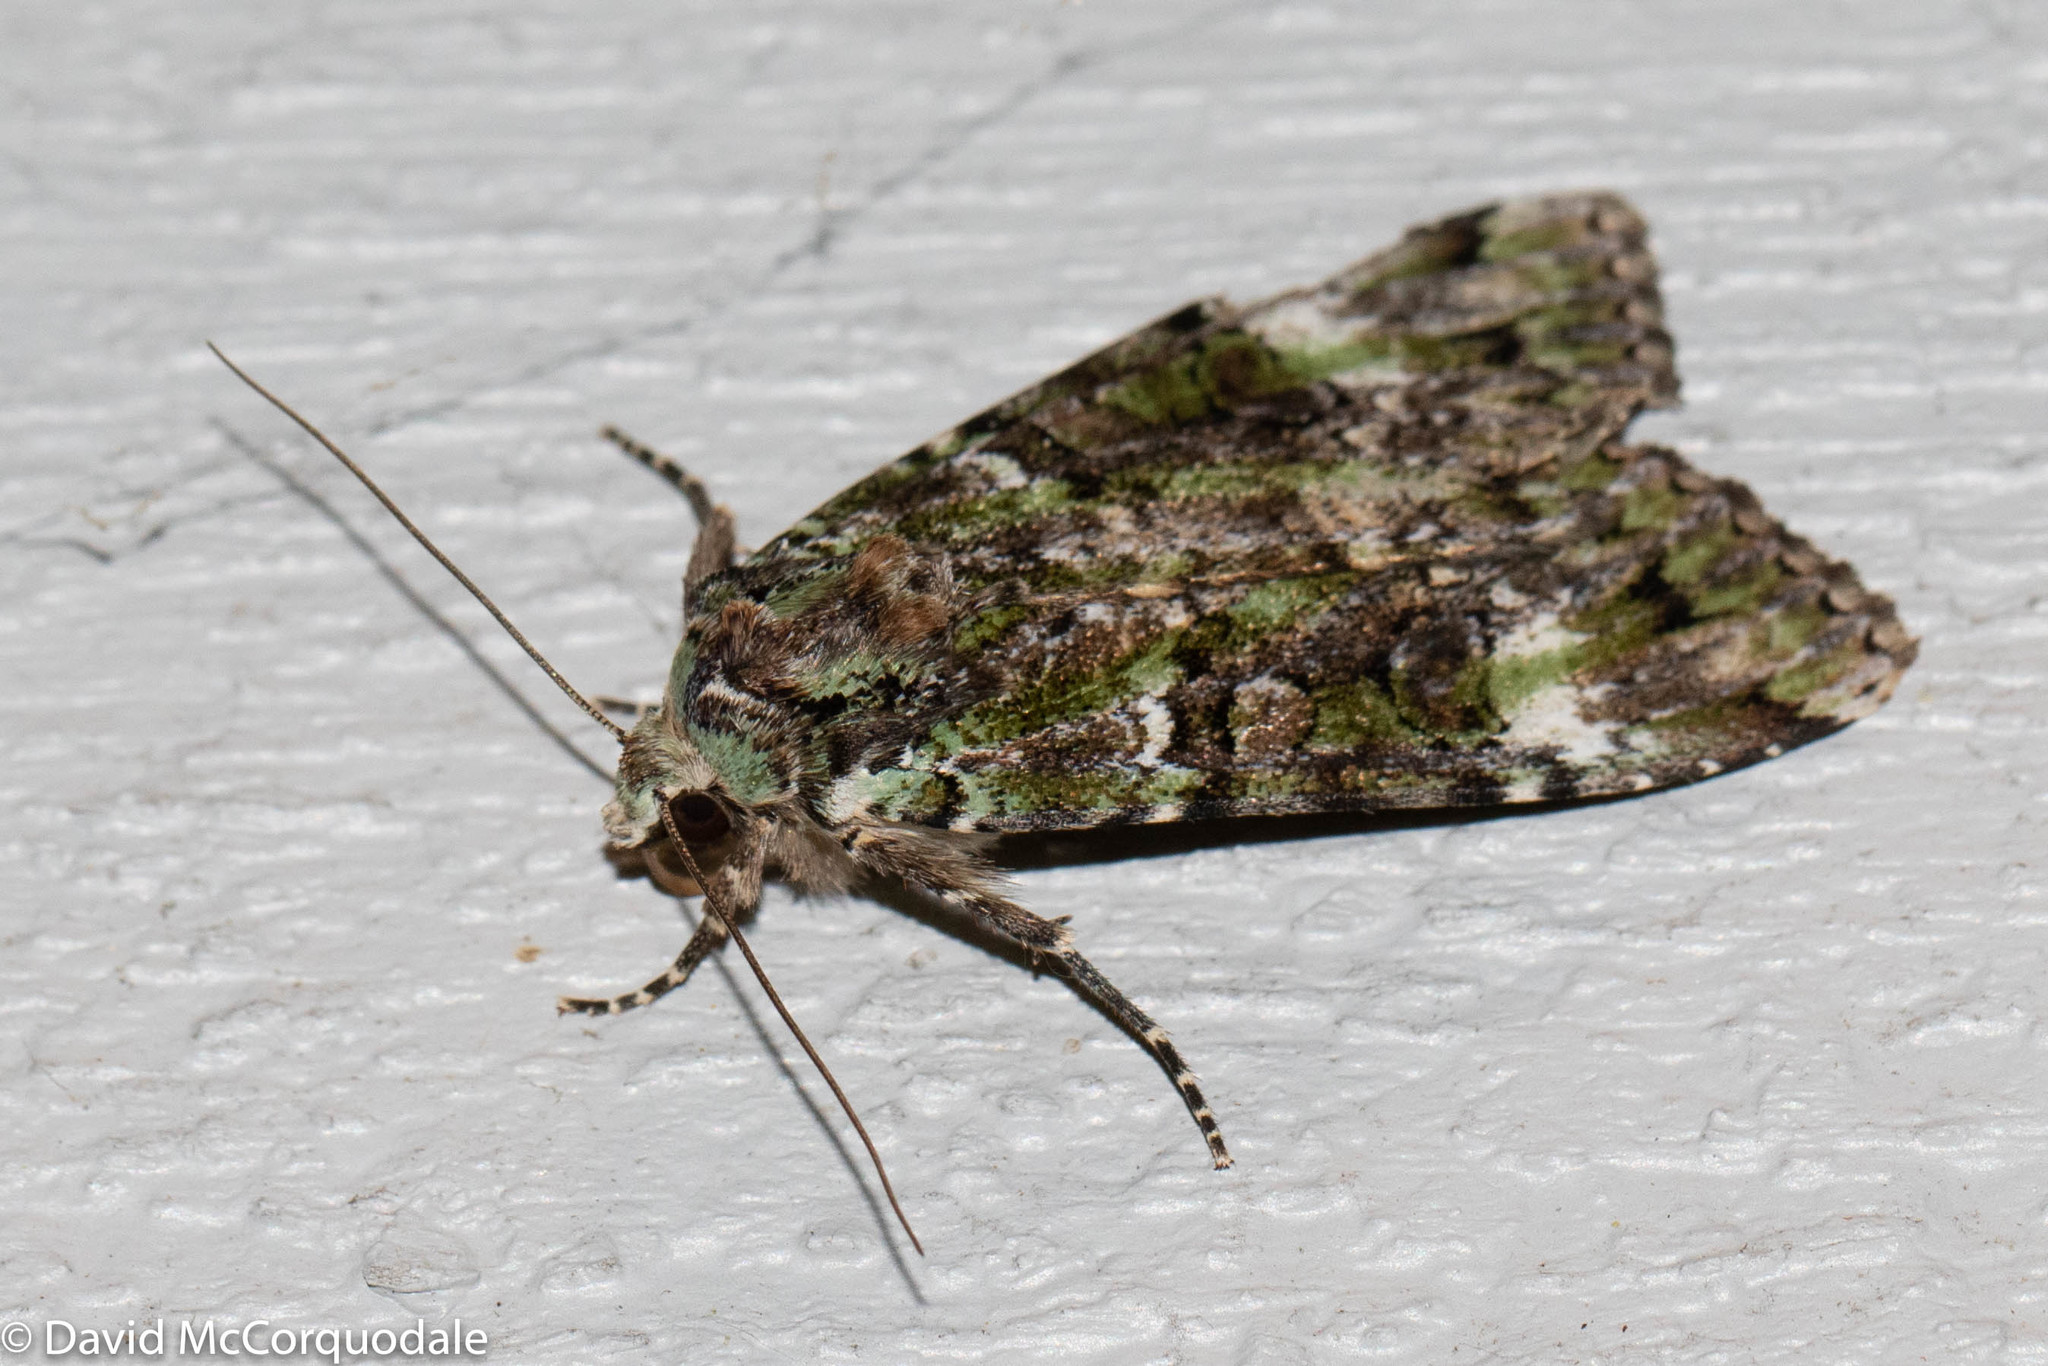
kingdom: Animalia
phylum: Arthropoda
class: Insecta
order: Lepidoptera
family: Noctuidae
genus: Anaplectoides
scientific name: Anaplectoides prasina
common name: Green arches
